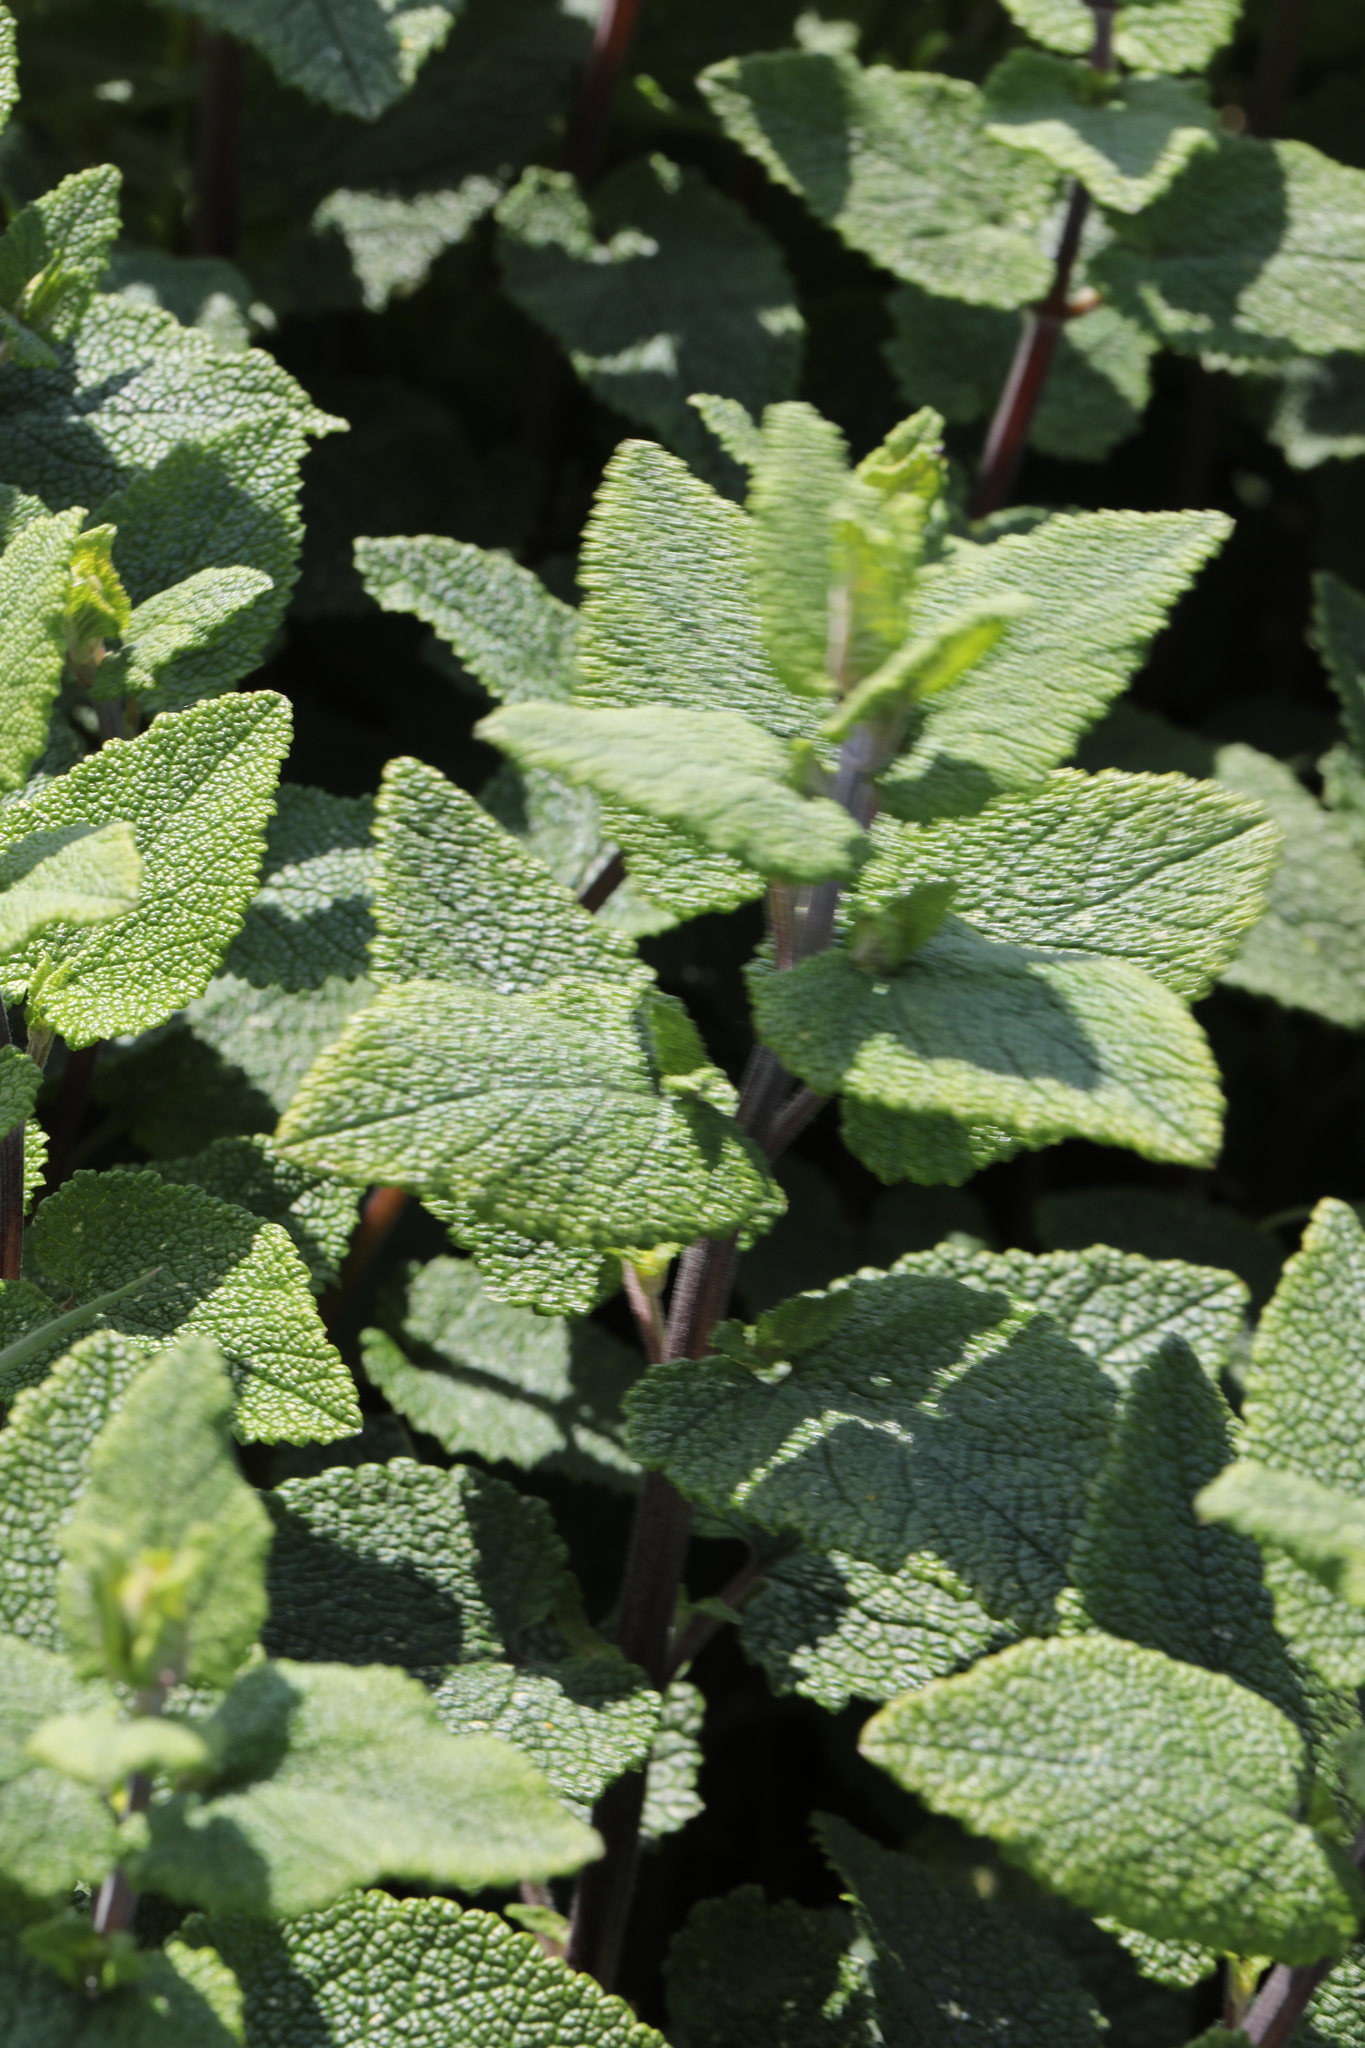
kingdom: Plantae
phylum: Tracheophyta
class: Magnoliopsida
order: Lamiales
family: Lamiaceae
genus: Teucrium
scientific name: Teucrium scorodonia
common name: Woodland germander
